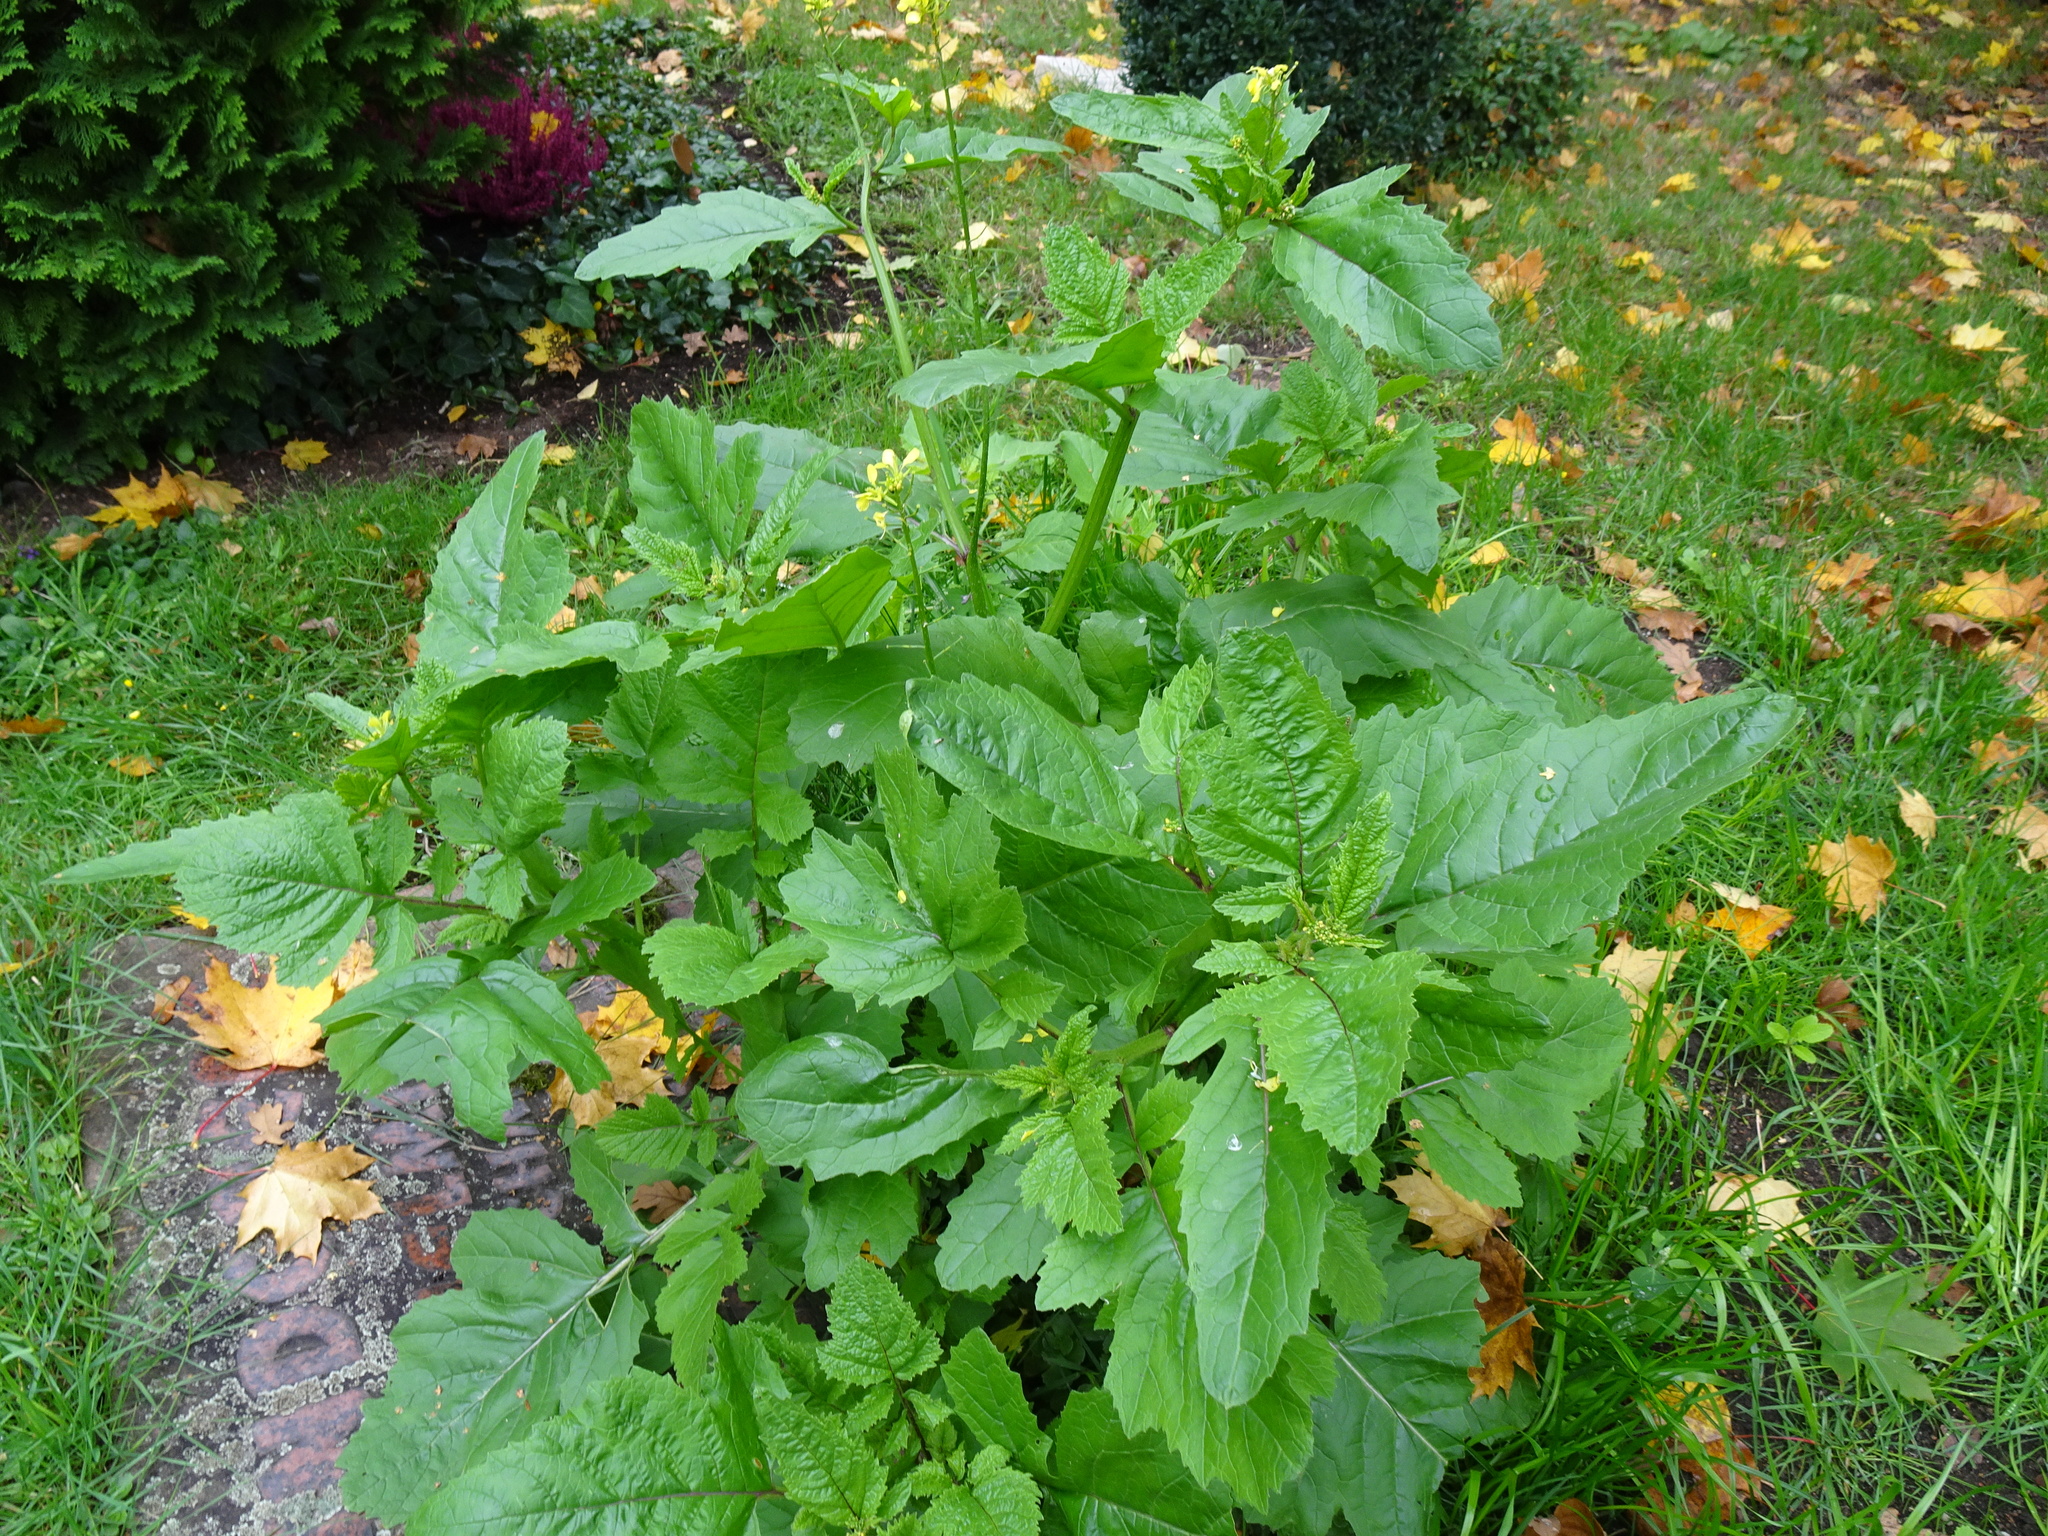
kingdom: Plantae
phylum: Tracheophyta
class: Magnoliopsida
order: Brassicales
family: Brassicaceae
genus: Sinapis
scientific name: Sinapis arvensis
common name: Charlock
